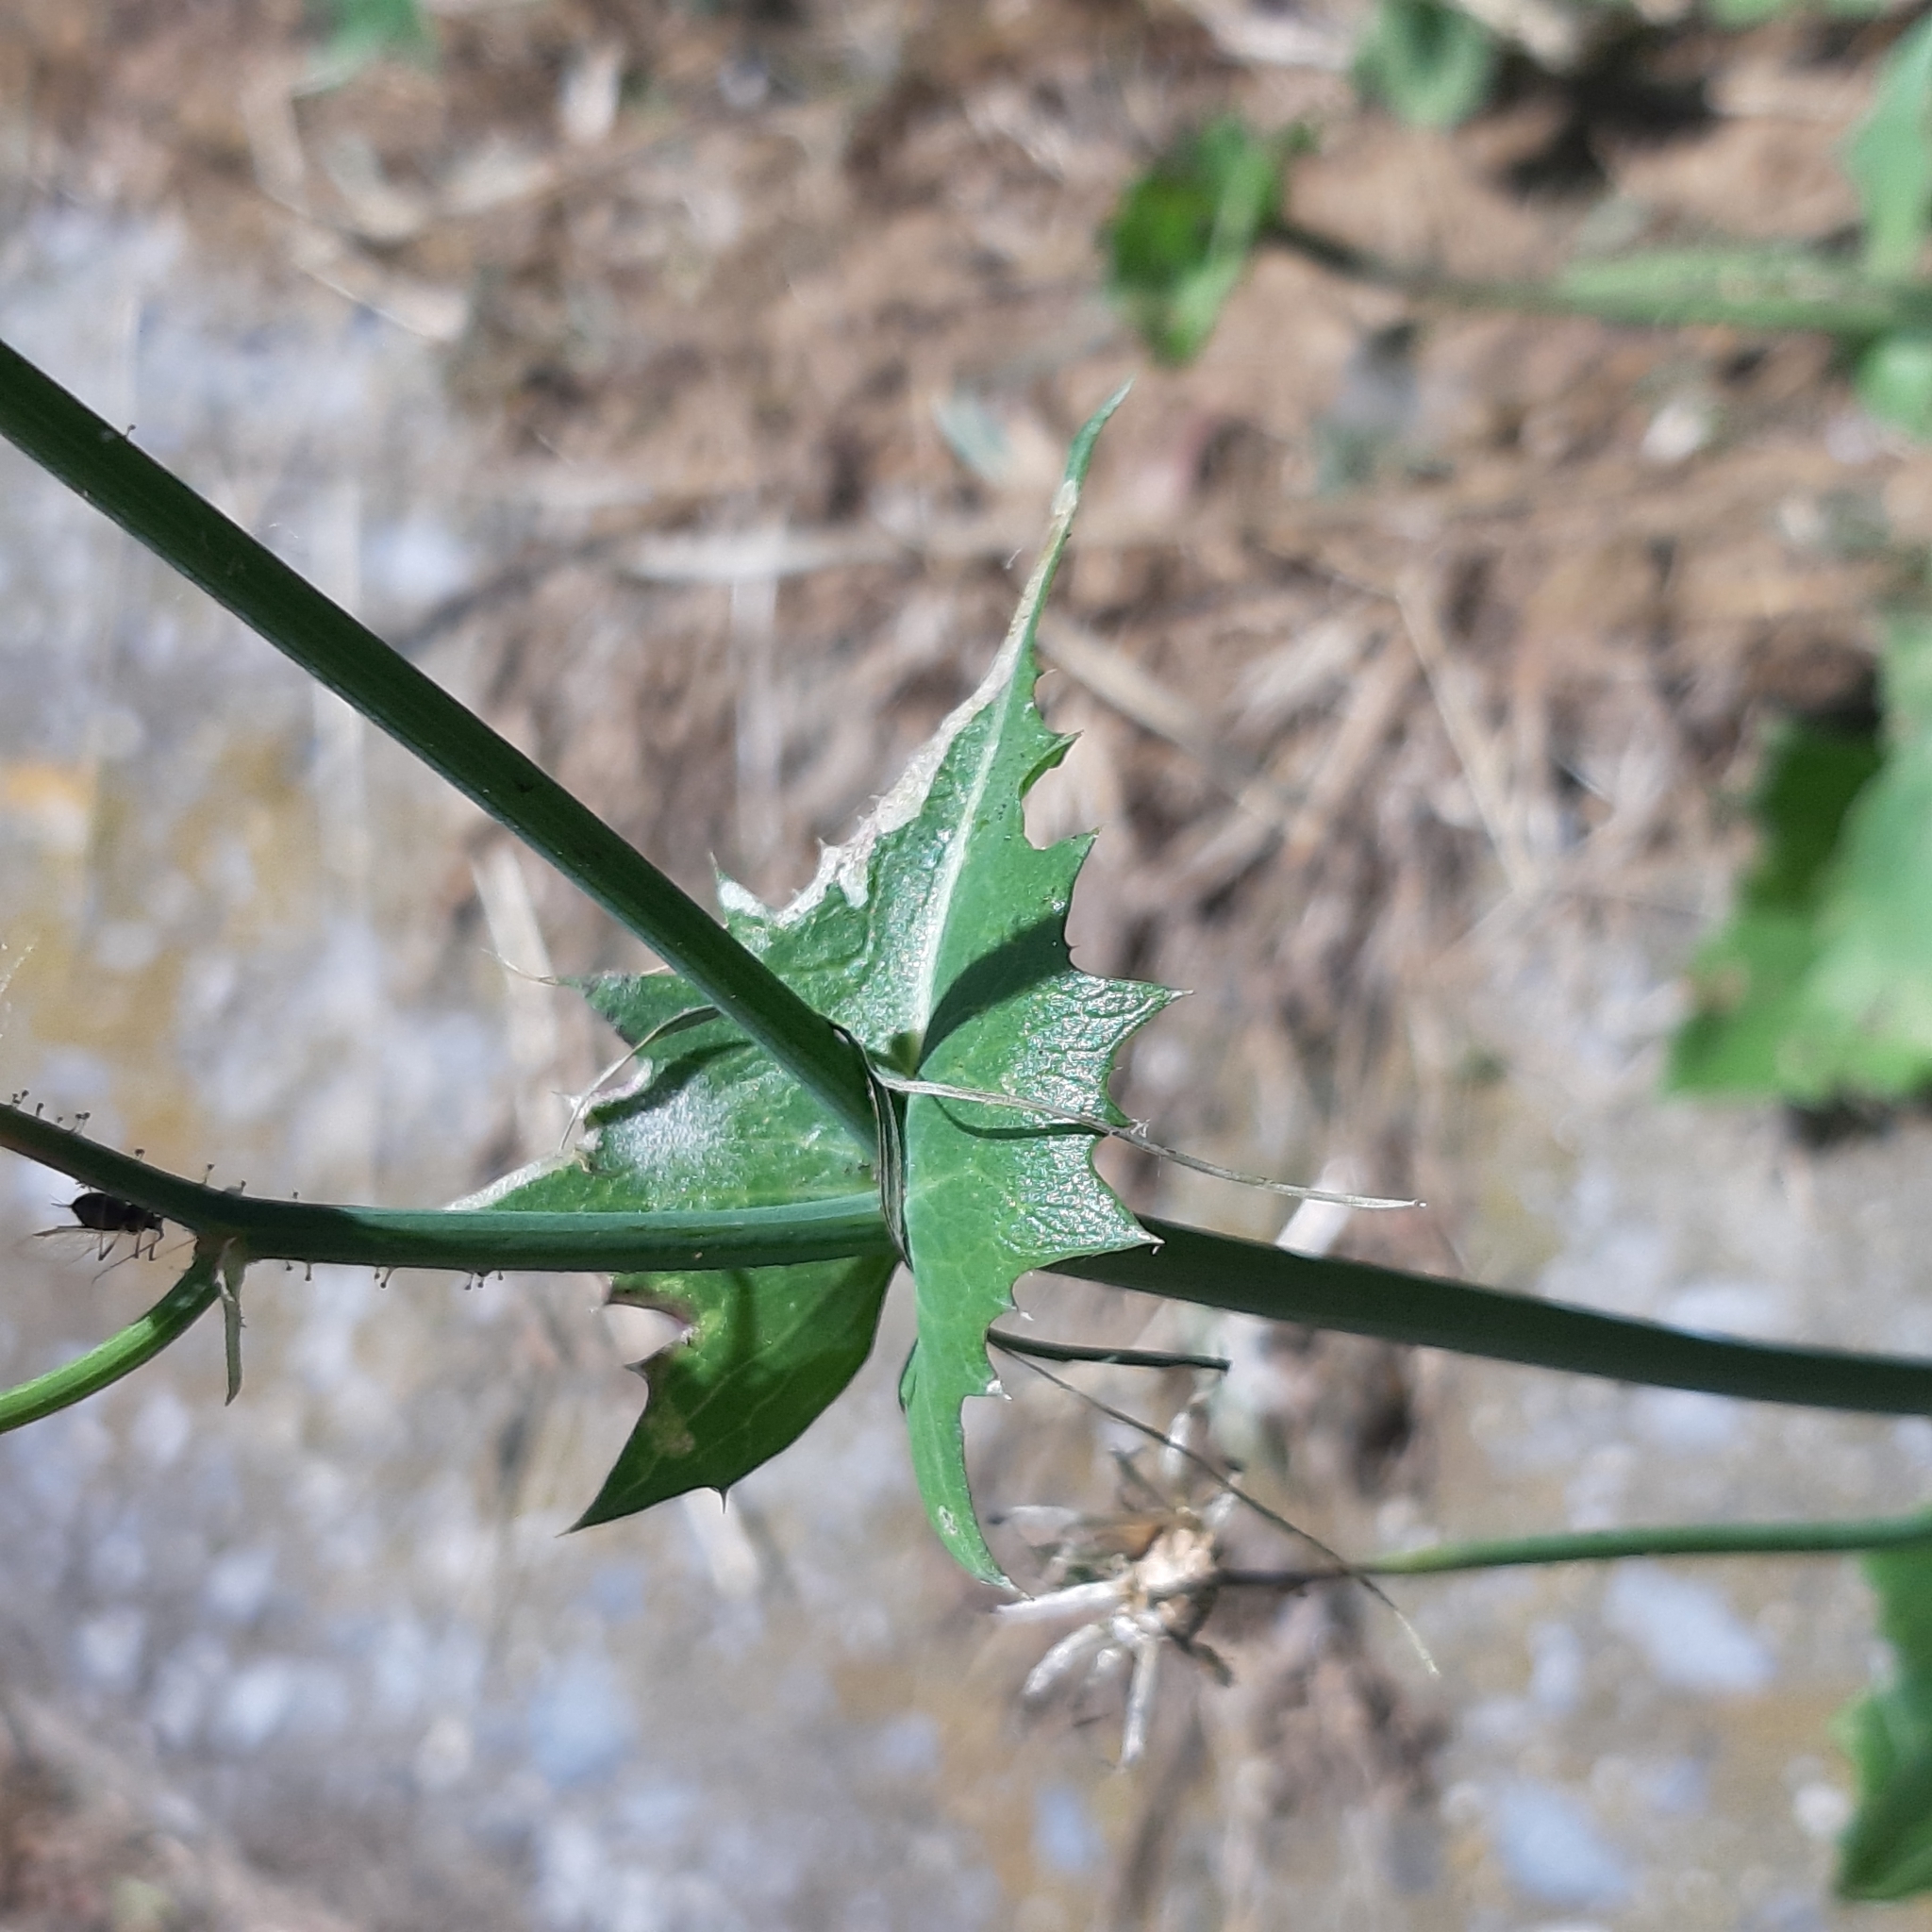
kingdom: Plantae
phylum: Tracheophyta
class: Magnoliopsida
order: Asterales
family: Asteraceae
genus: Lactuca
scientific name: Lactuca serriola
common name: Prickly lettuce
